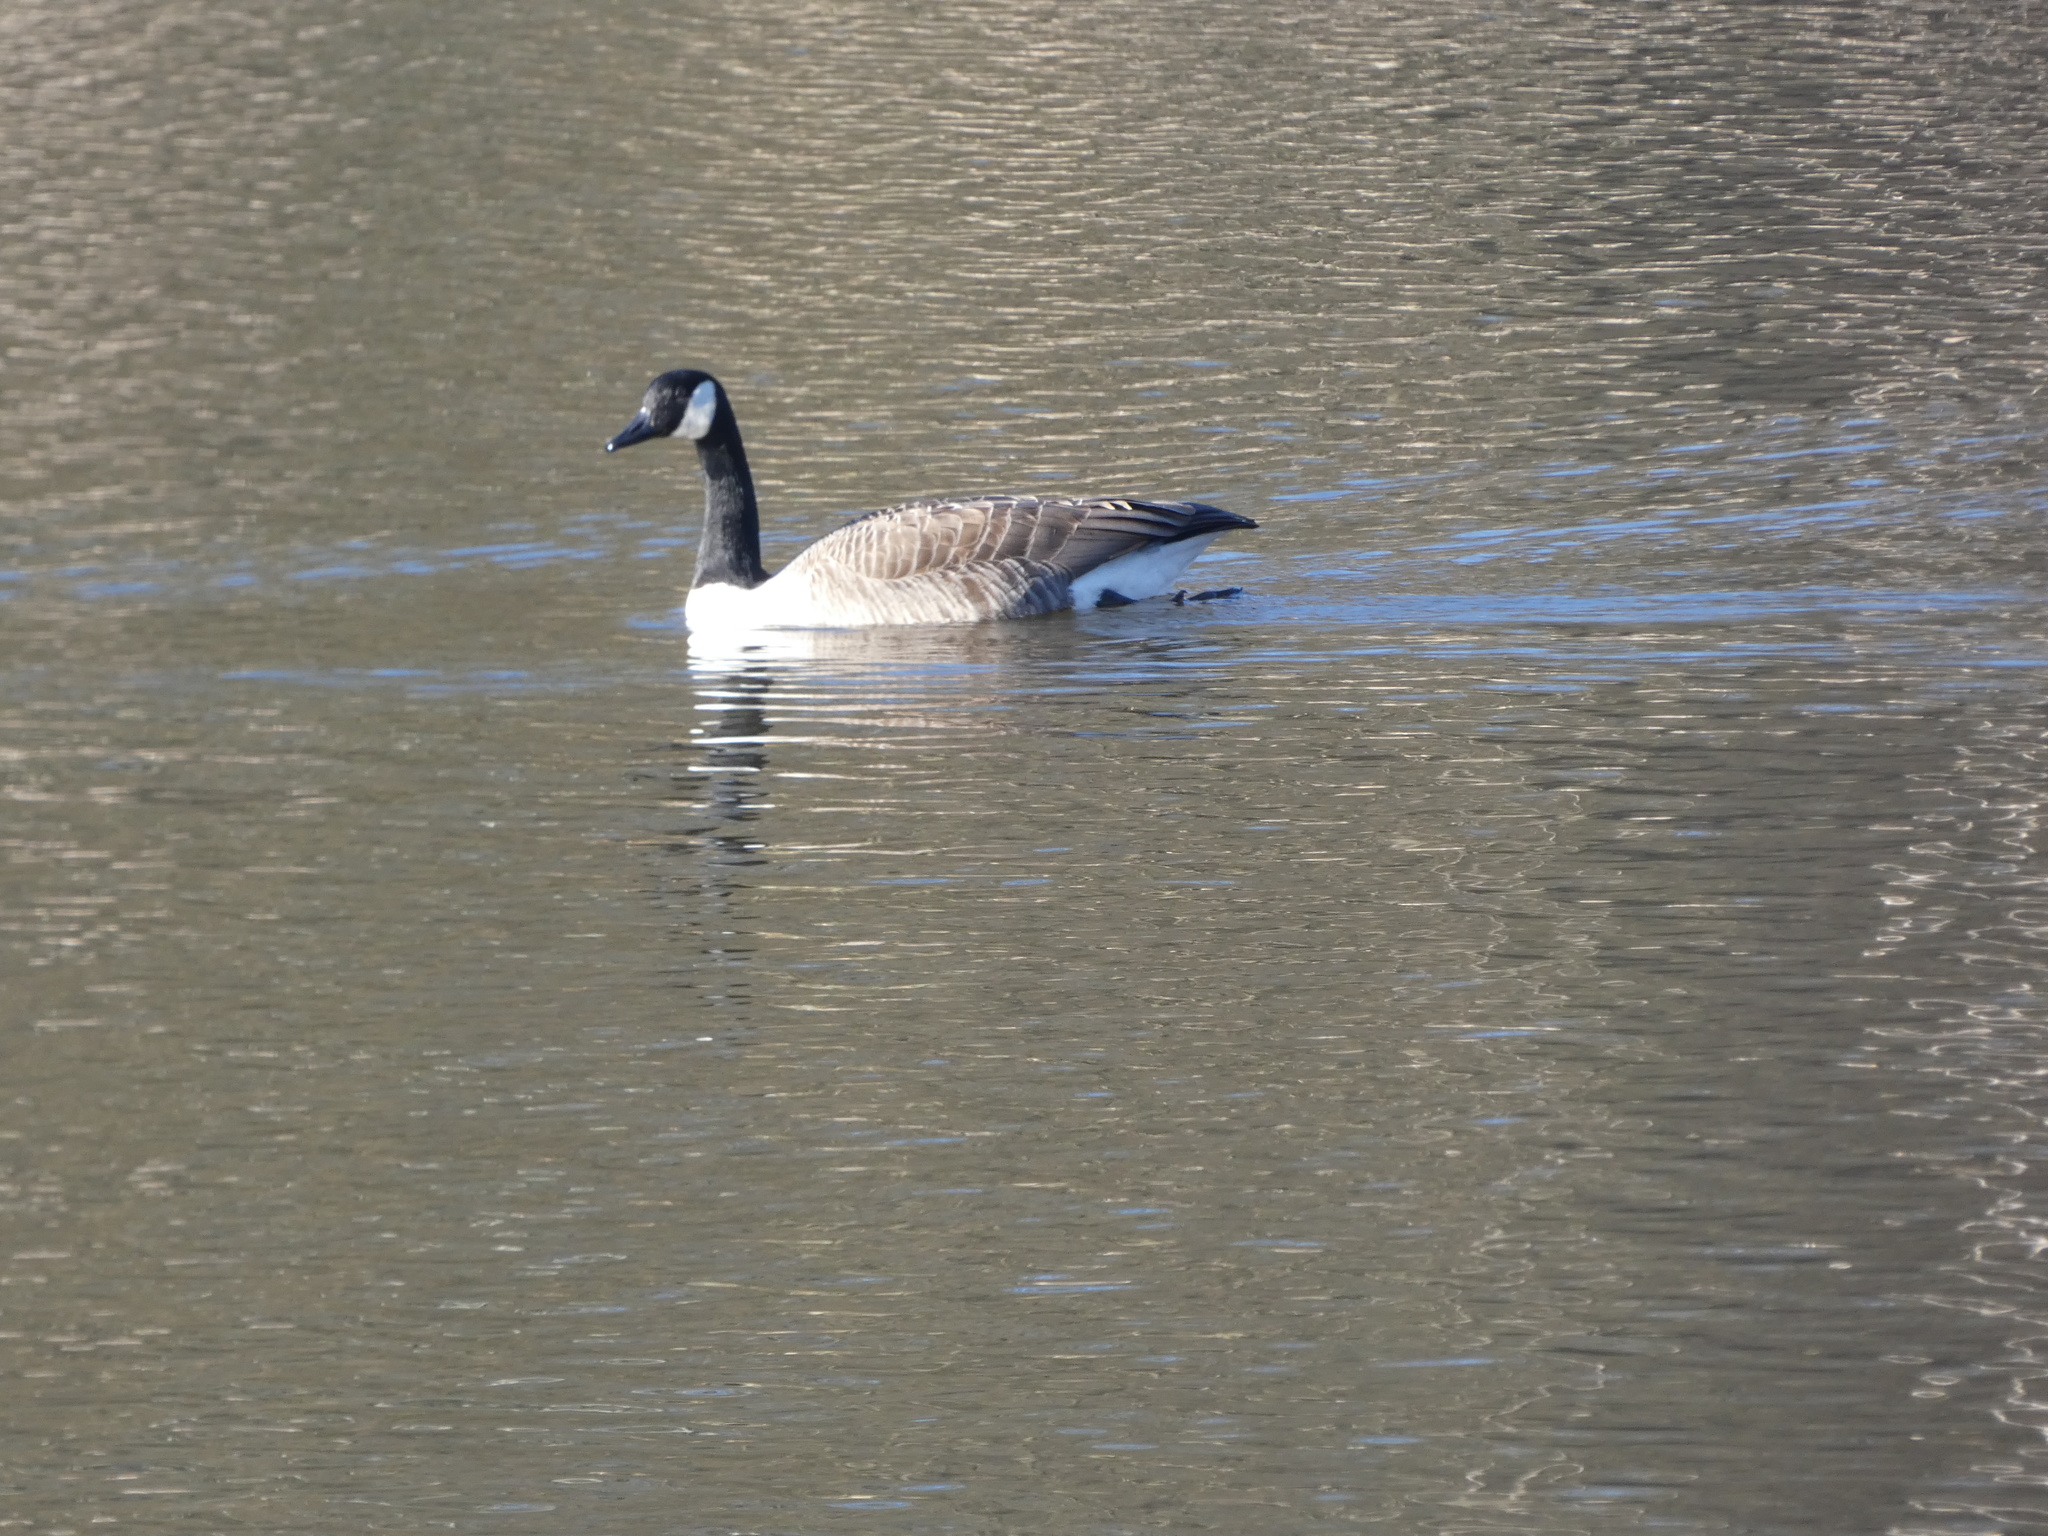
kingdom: Animalia
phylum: Chordata
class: Aves
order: Anseriformes
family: Anatidae
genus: Branta
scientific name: Branta canadensis
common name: Canada goose
